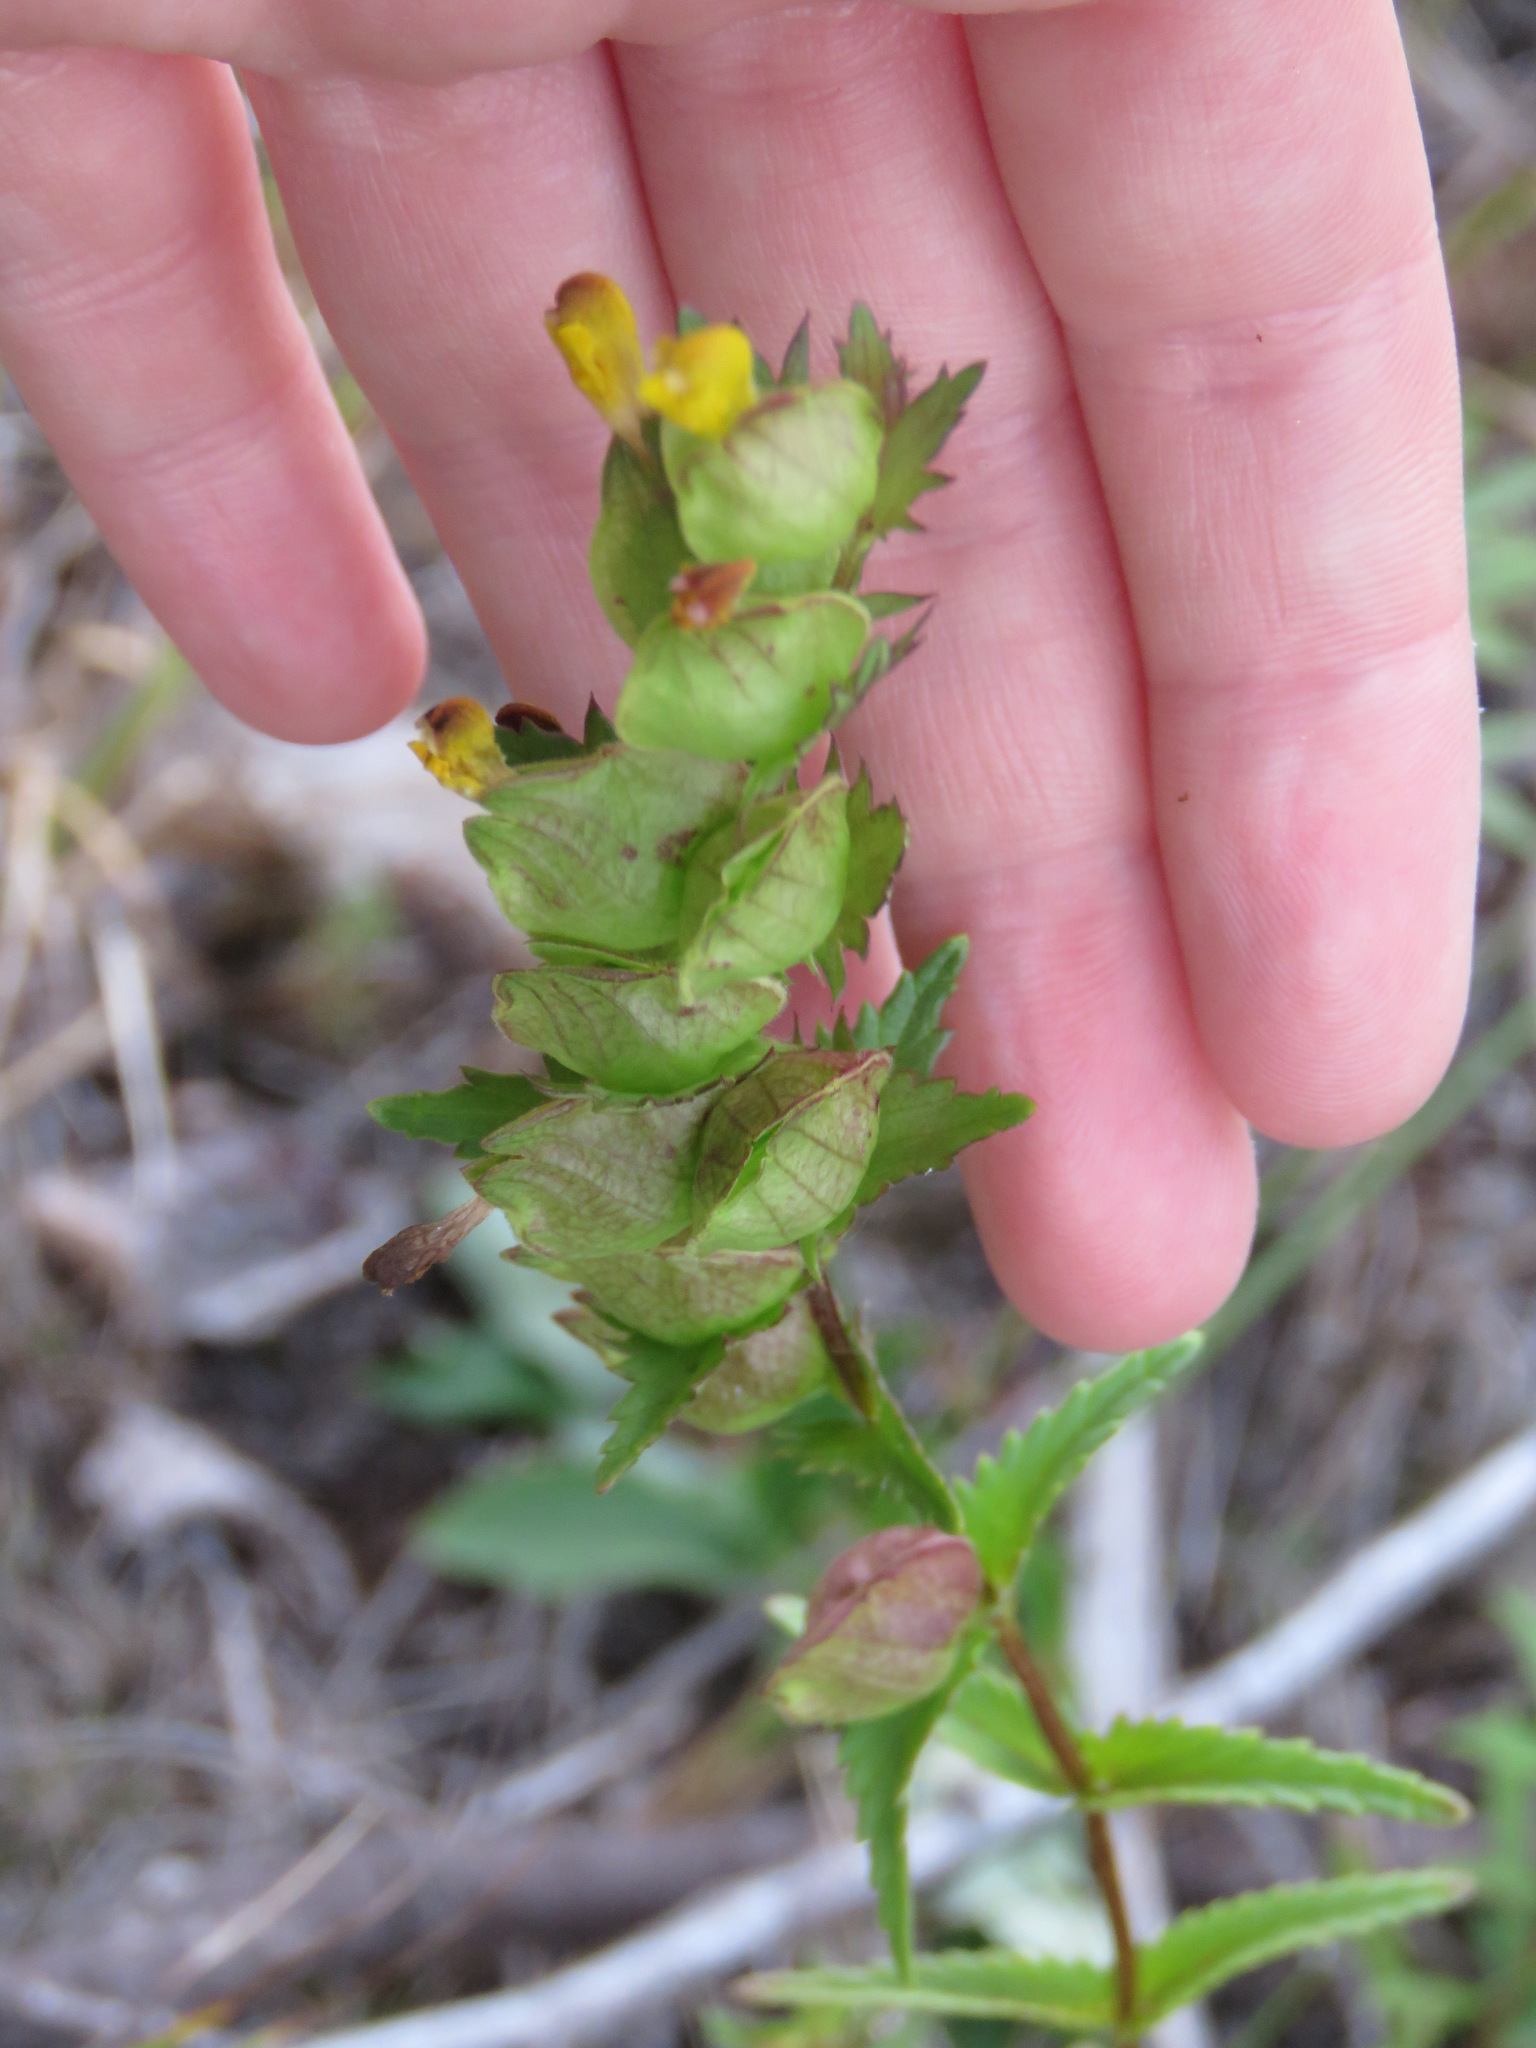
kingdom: Plantae
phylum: Tracheophyta
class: Magnoliopsida
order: Lamiales
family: Orobanchaceae
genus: Rhinanthus
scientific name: Rhinanthus minor
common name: Yellow-rattle
